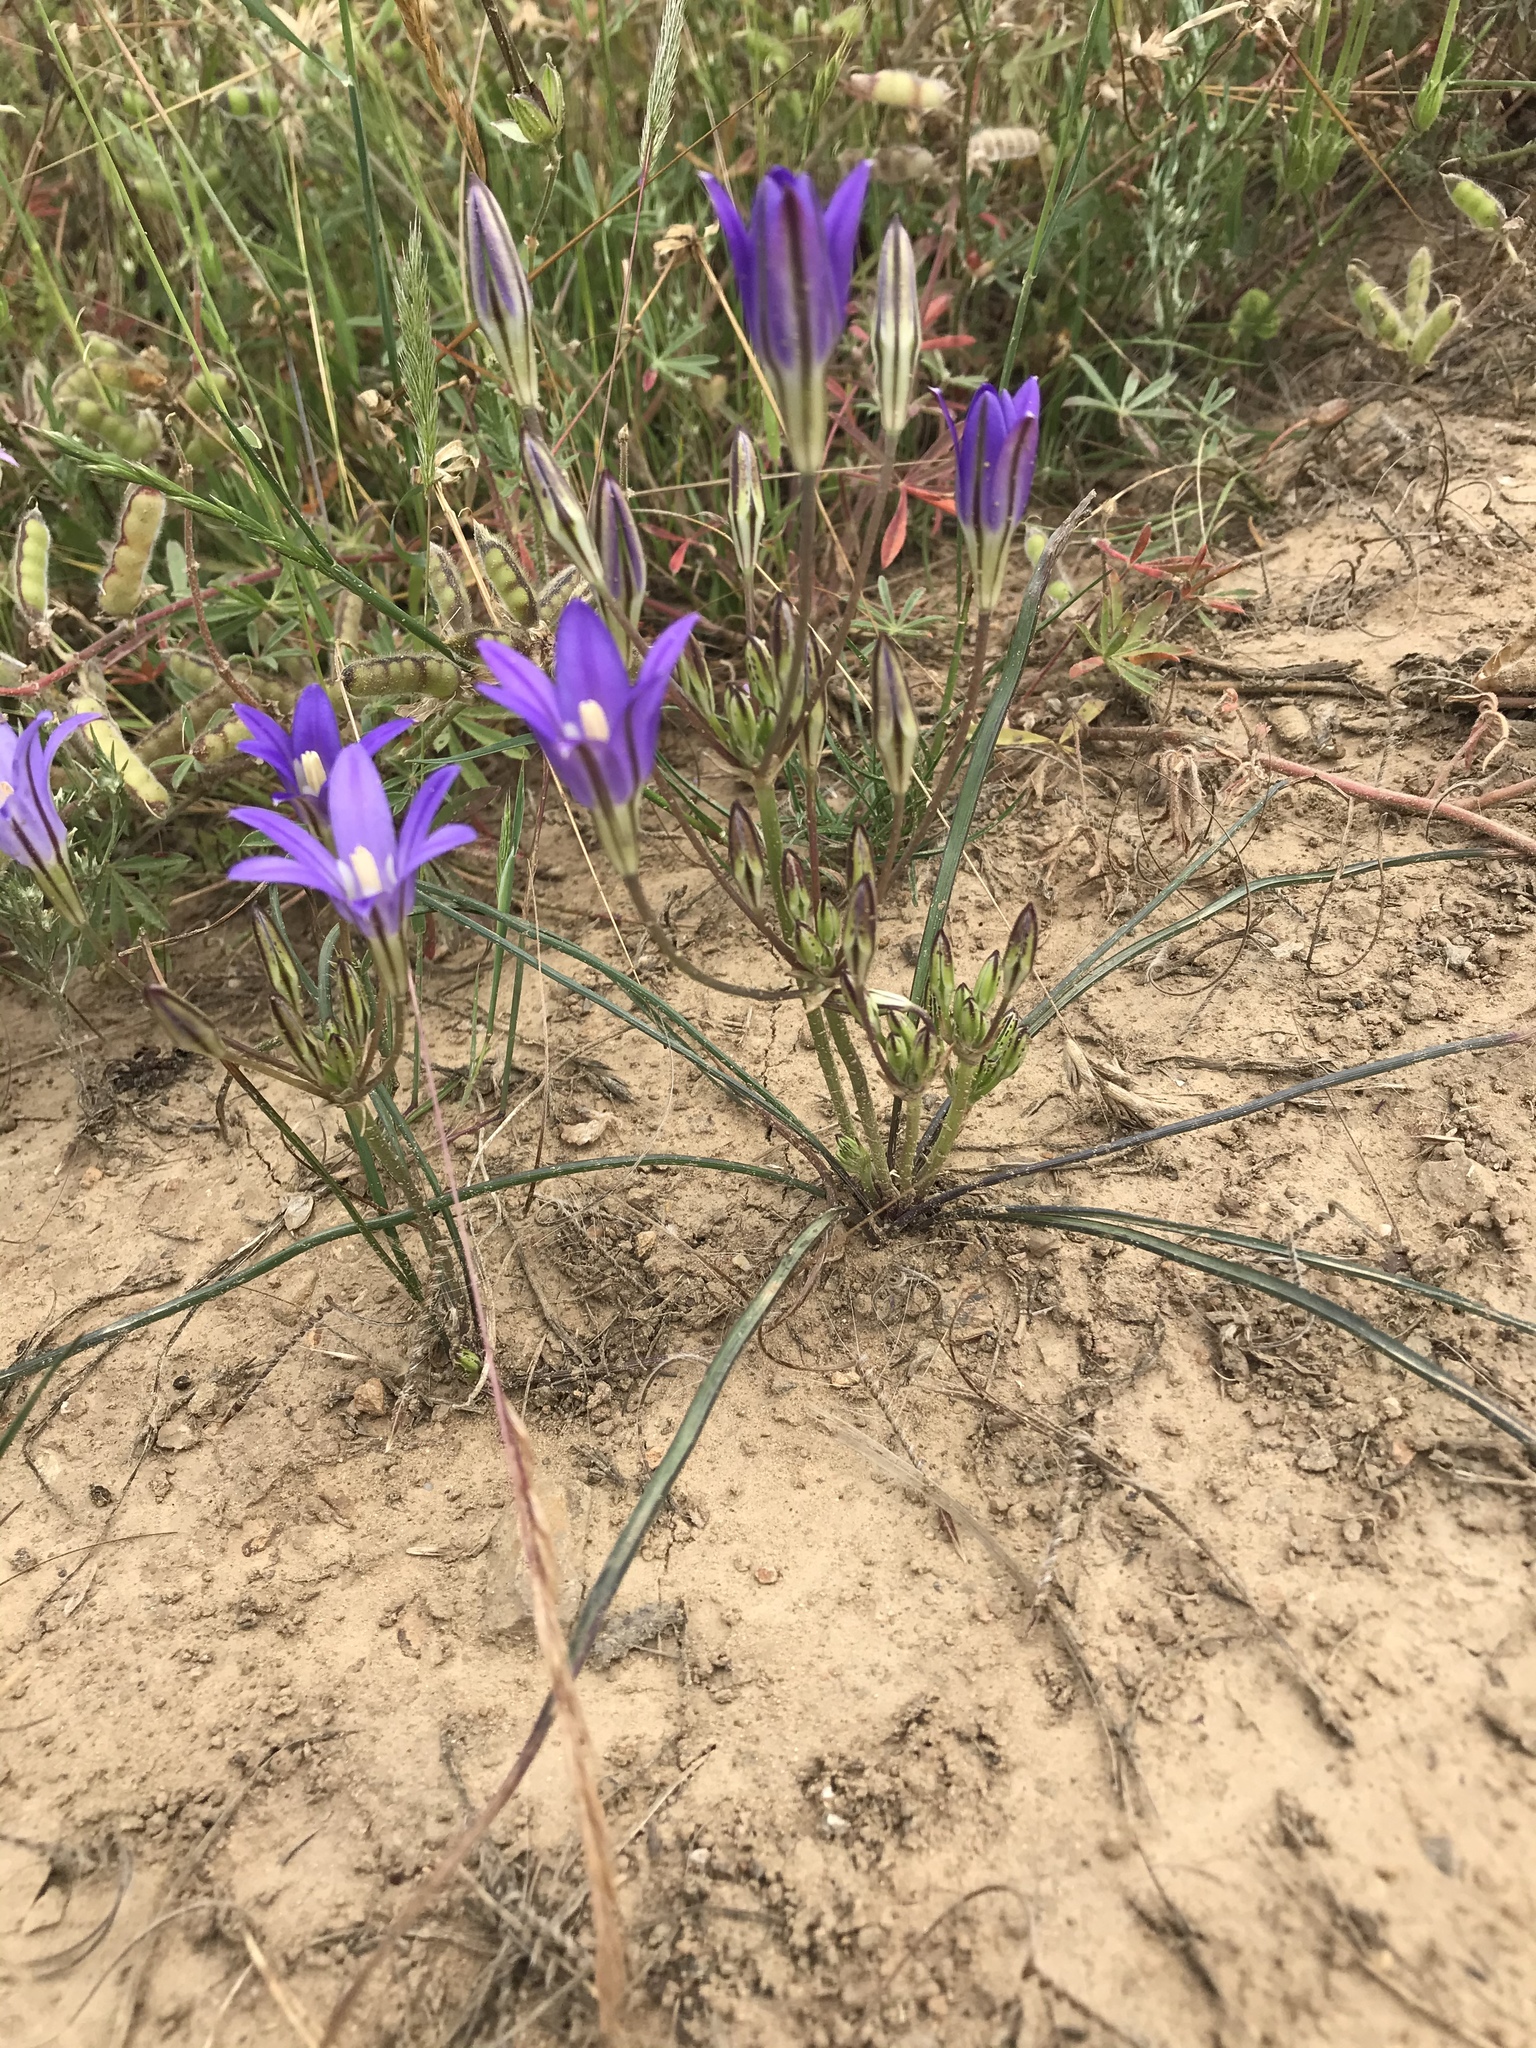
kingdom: Plantae
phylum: Tracheophyta
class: Liliopsida
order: Asparagales
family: Asparagaceae
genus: Brodiaea
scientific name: Brodiaea elegans
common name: Elegant cluster-lily
